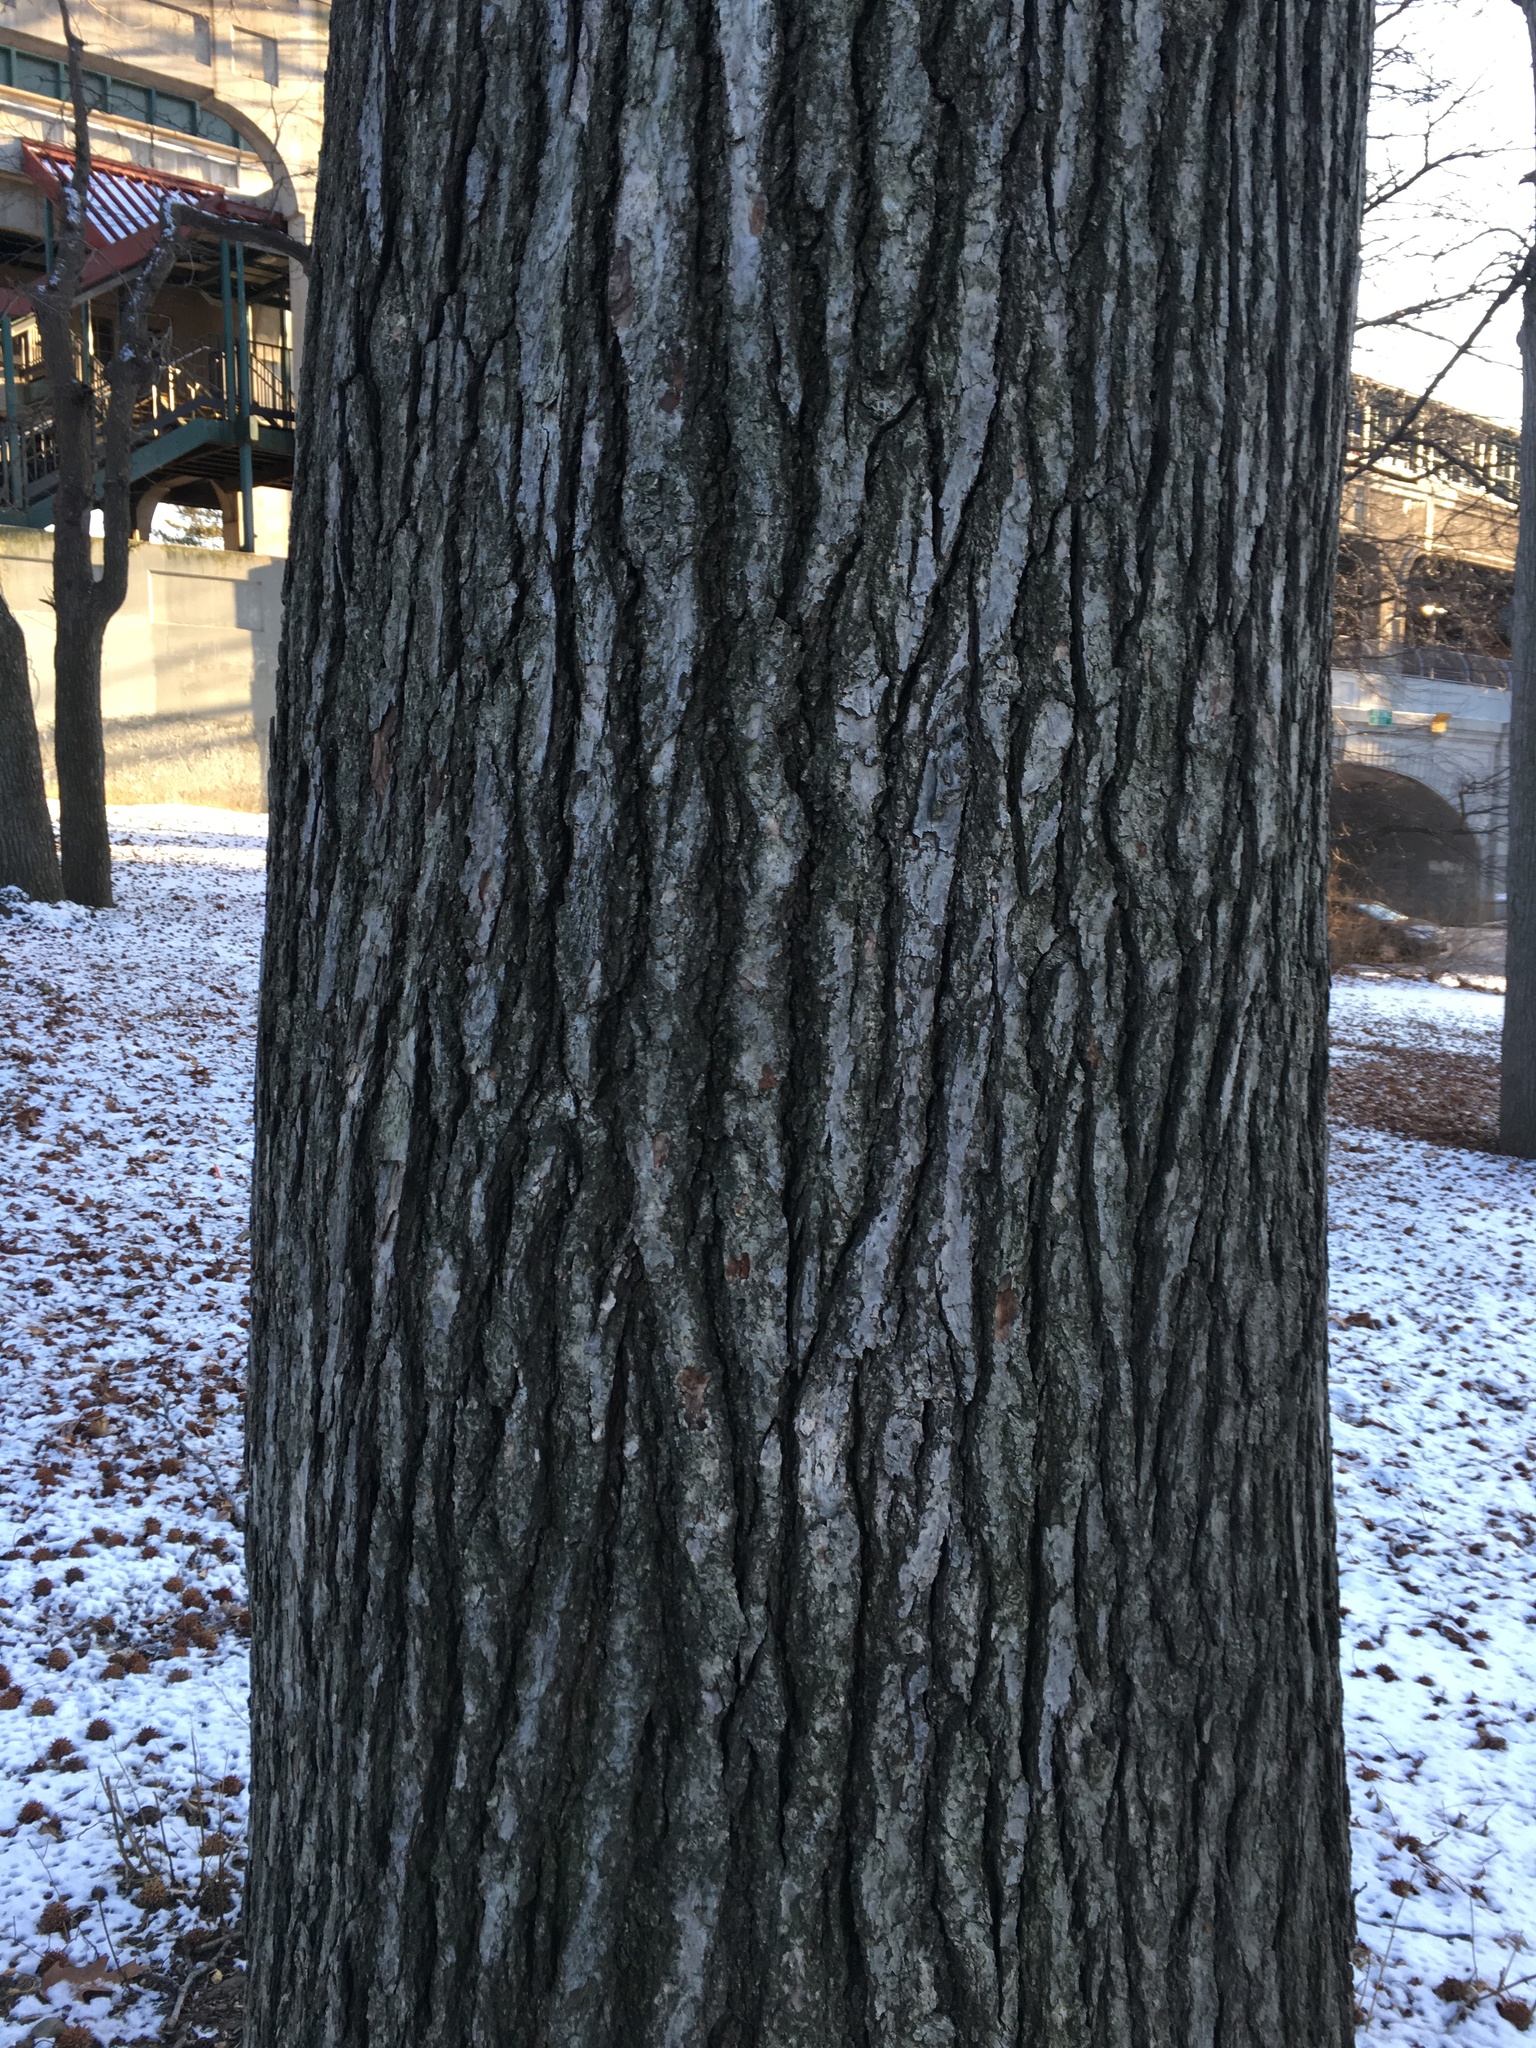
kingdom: Plantae
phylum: Tracheophyta
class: Magnoliopsida
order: Saxifragales
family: Altingiaceae
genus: Liquidambar
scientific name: Liquidambar styraciflua
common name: Sweet gum
